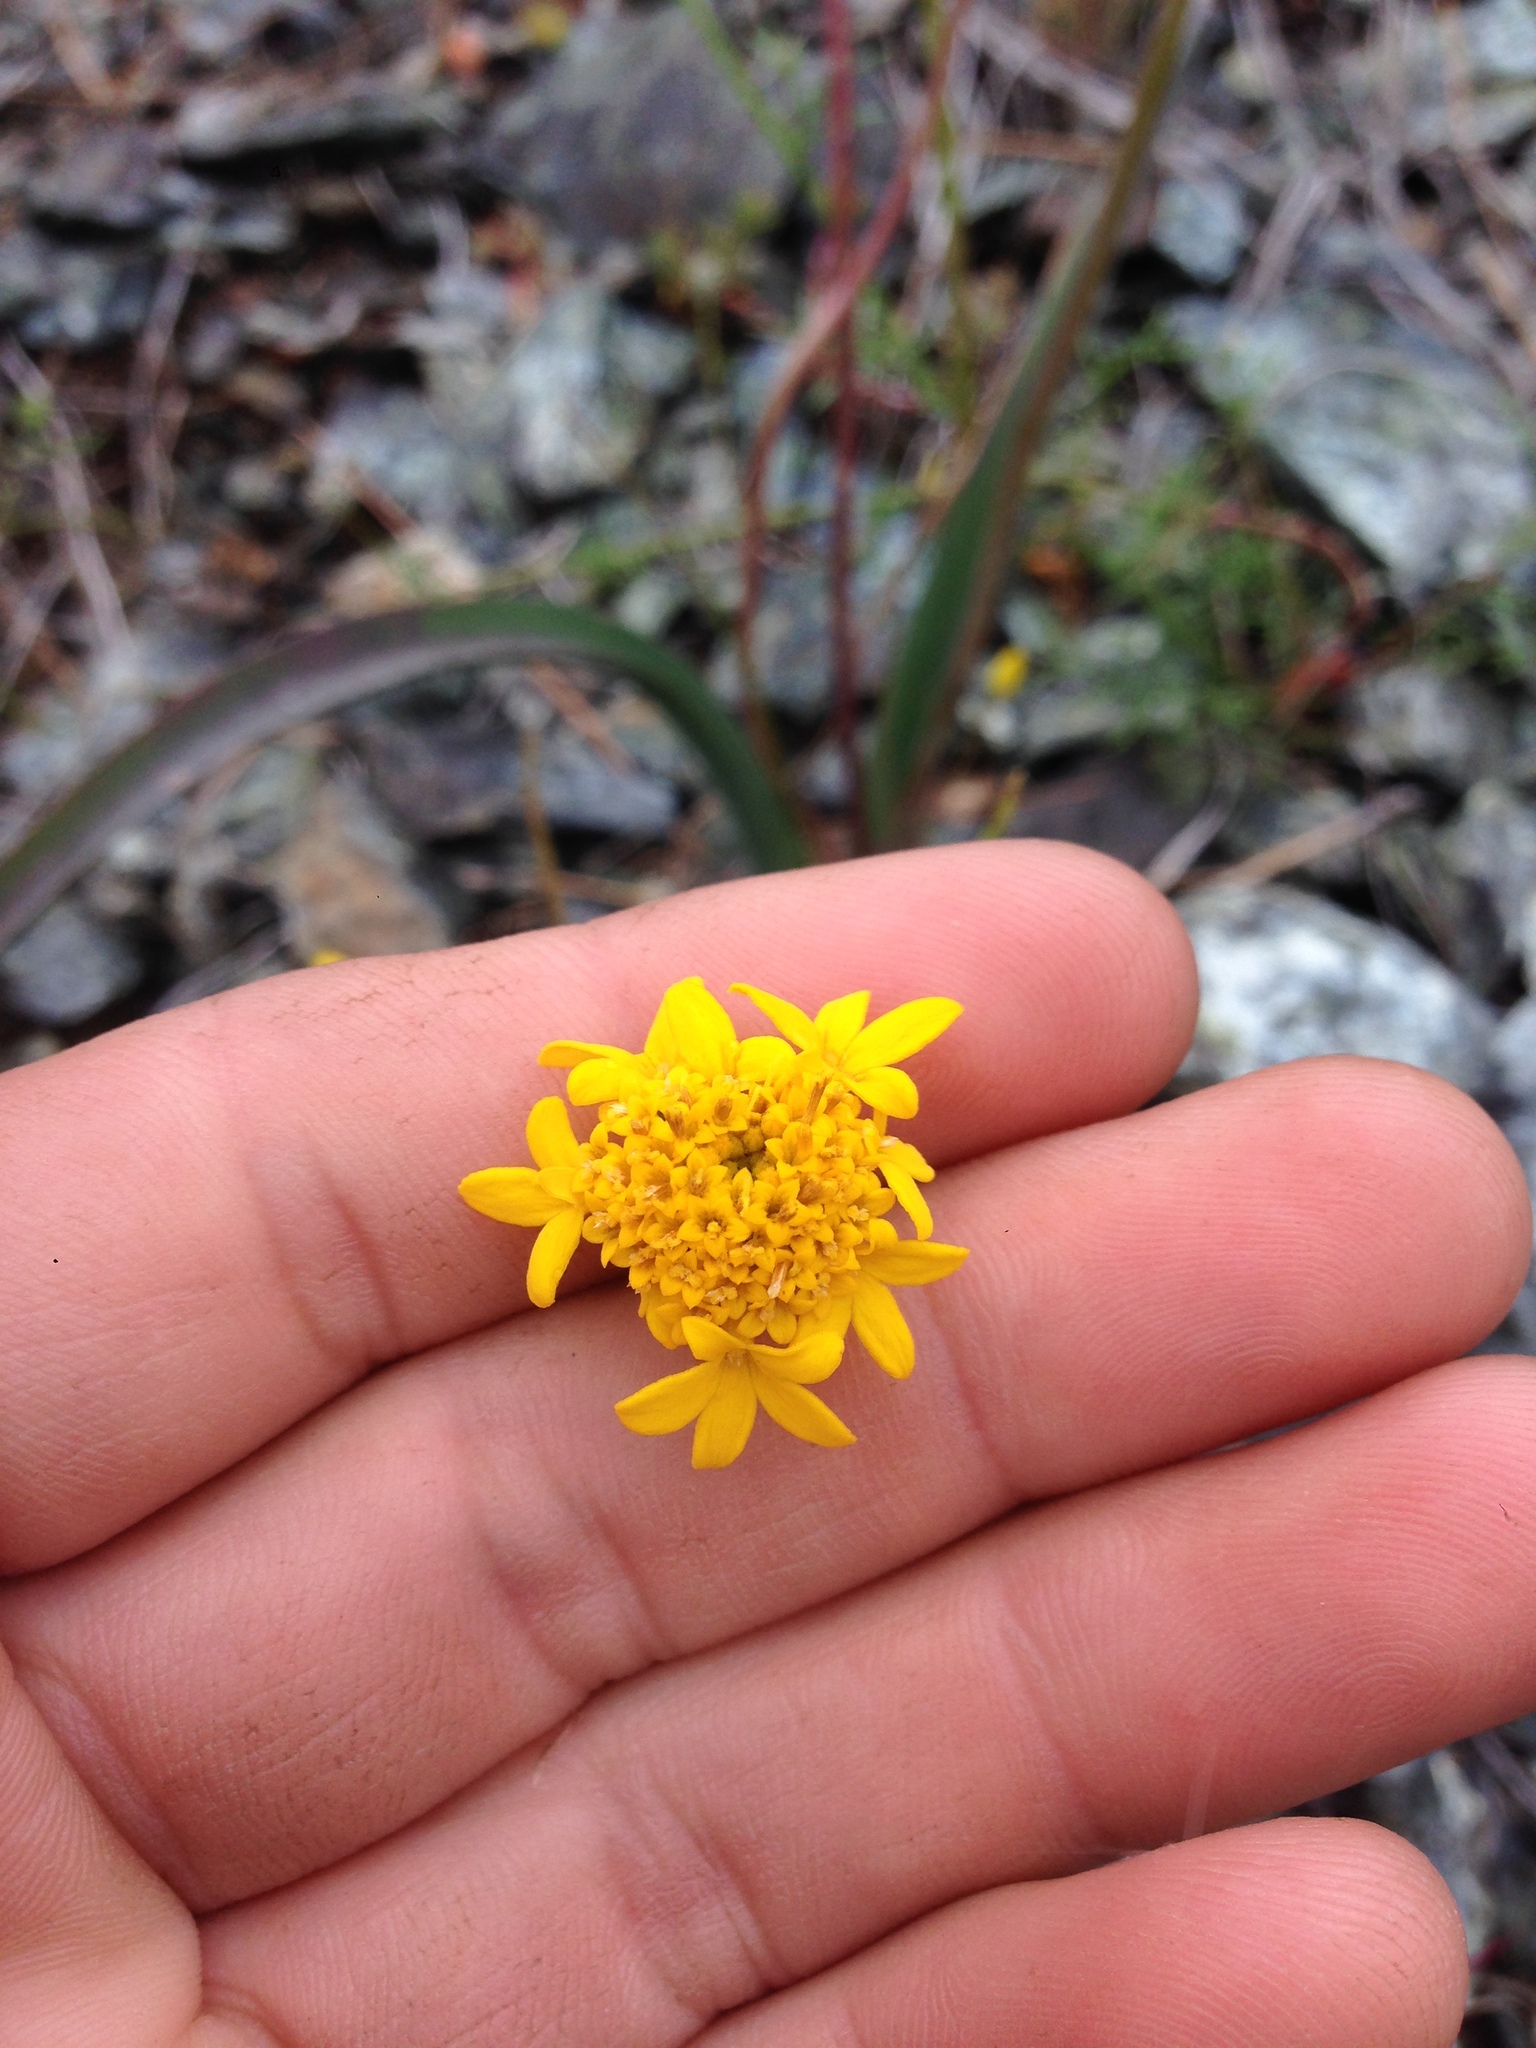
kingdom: Plantae
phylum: Tracheophyta
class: Magnoliopsida
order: Asterales
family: Asteraceae
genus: Chaenactis
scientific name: Chaenactis glabriuscula
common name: Yellow pincushion
